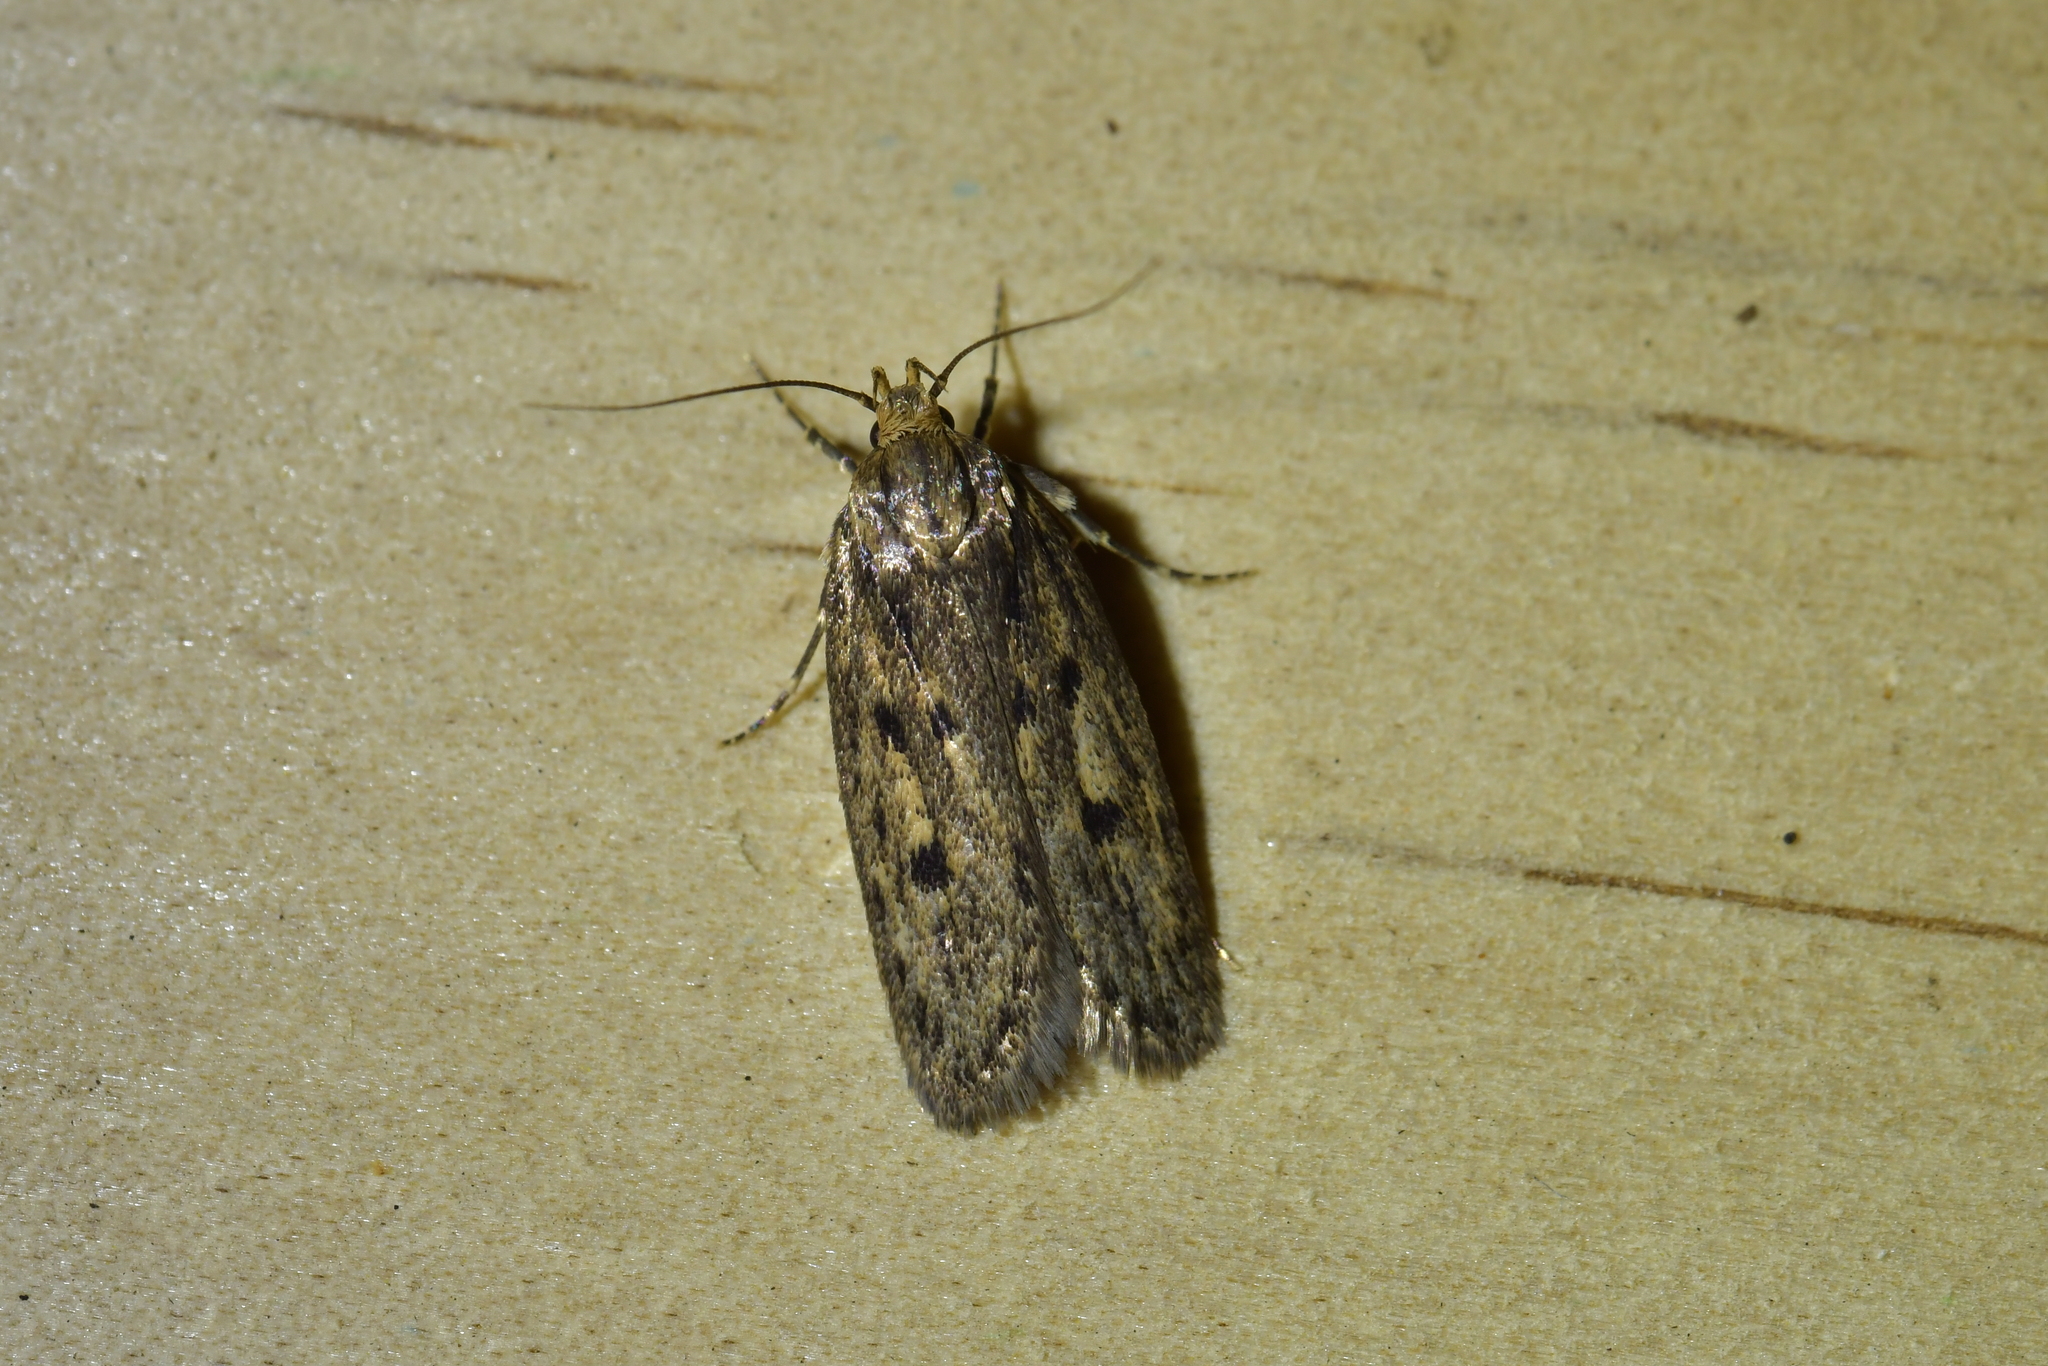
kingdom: Animalia
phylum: Arthropoda
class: Insecta
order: Lepidoptera
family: Oecophoridae
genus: Hofmannophila
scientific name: Hofmannophila pseudospretella
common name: Brown house moth
